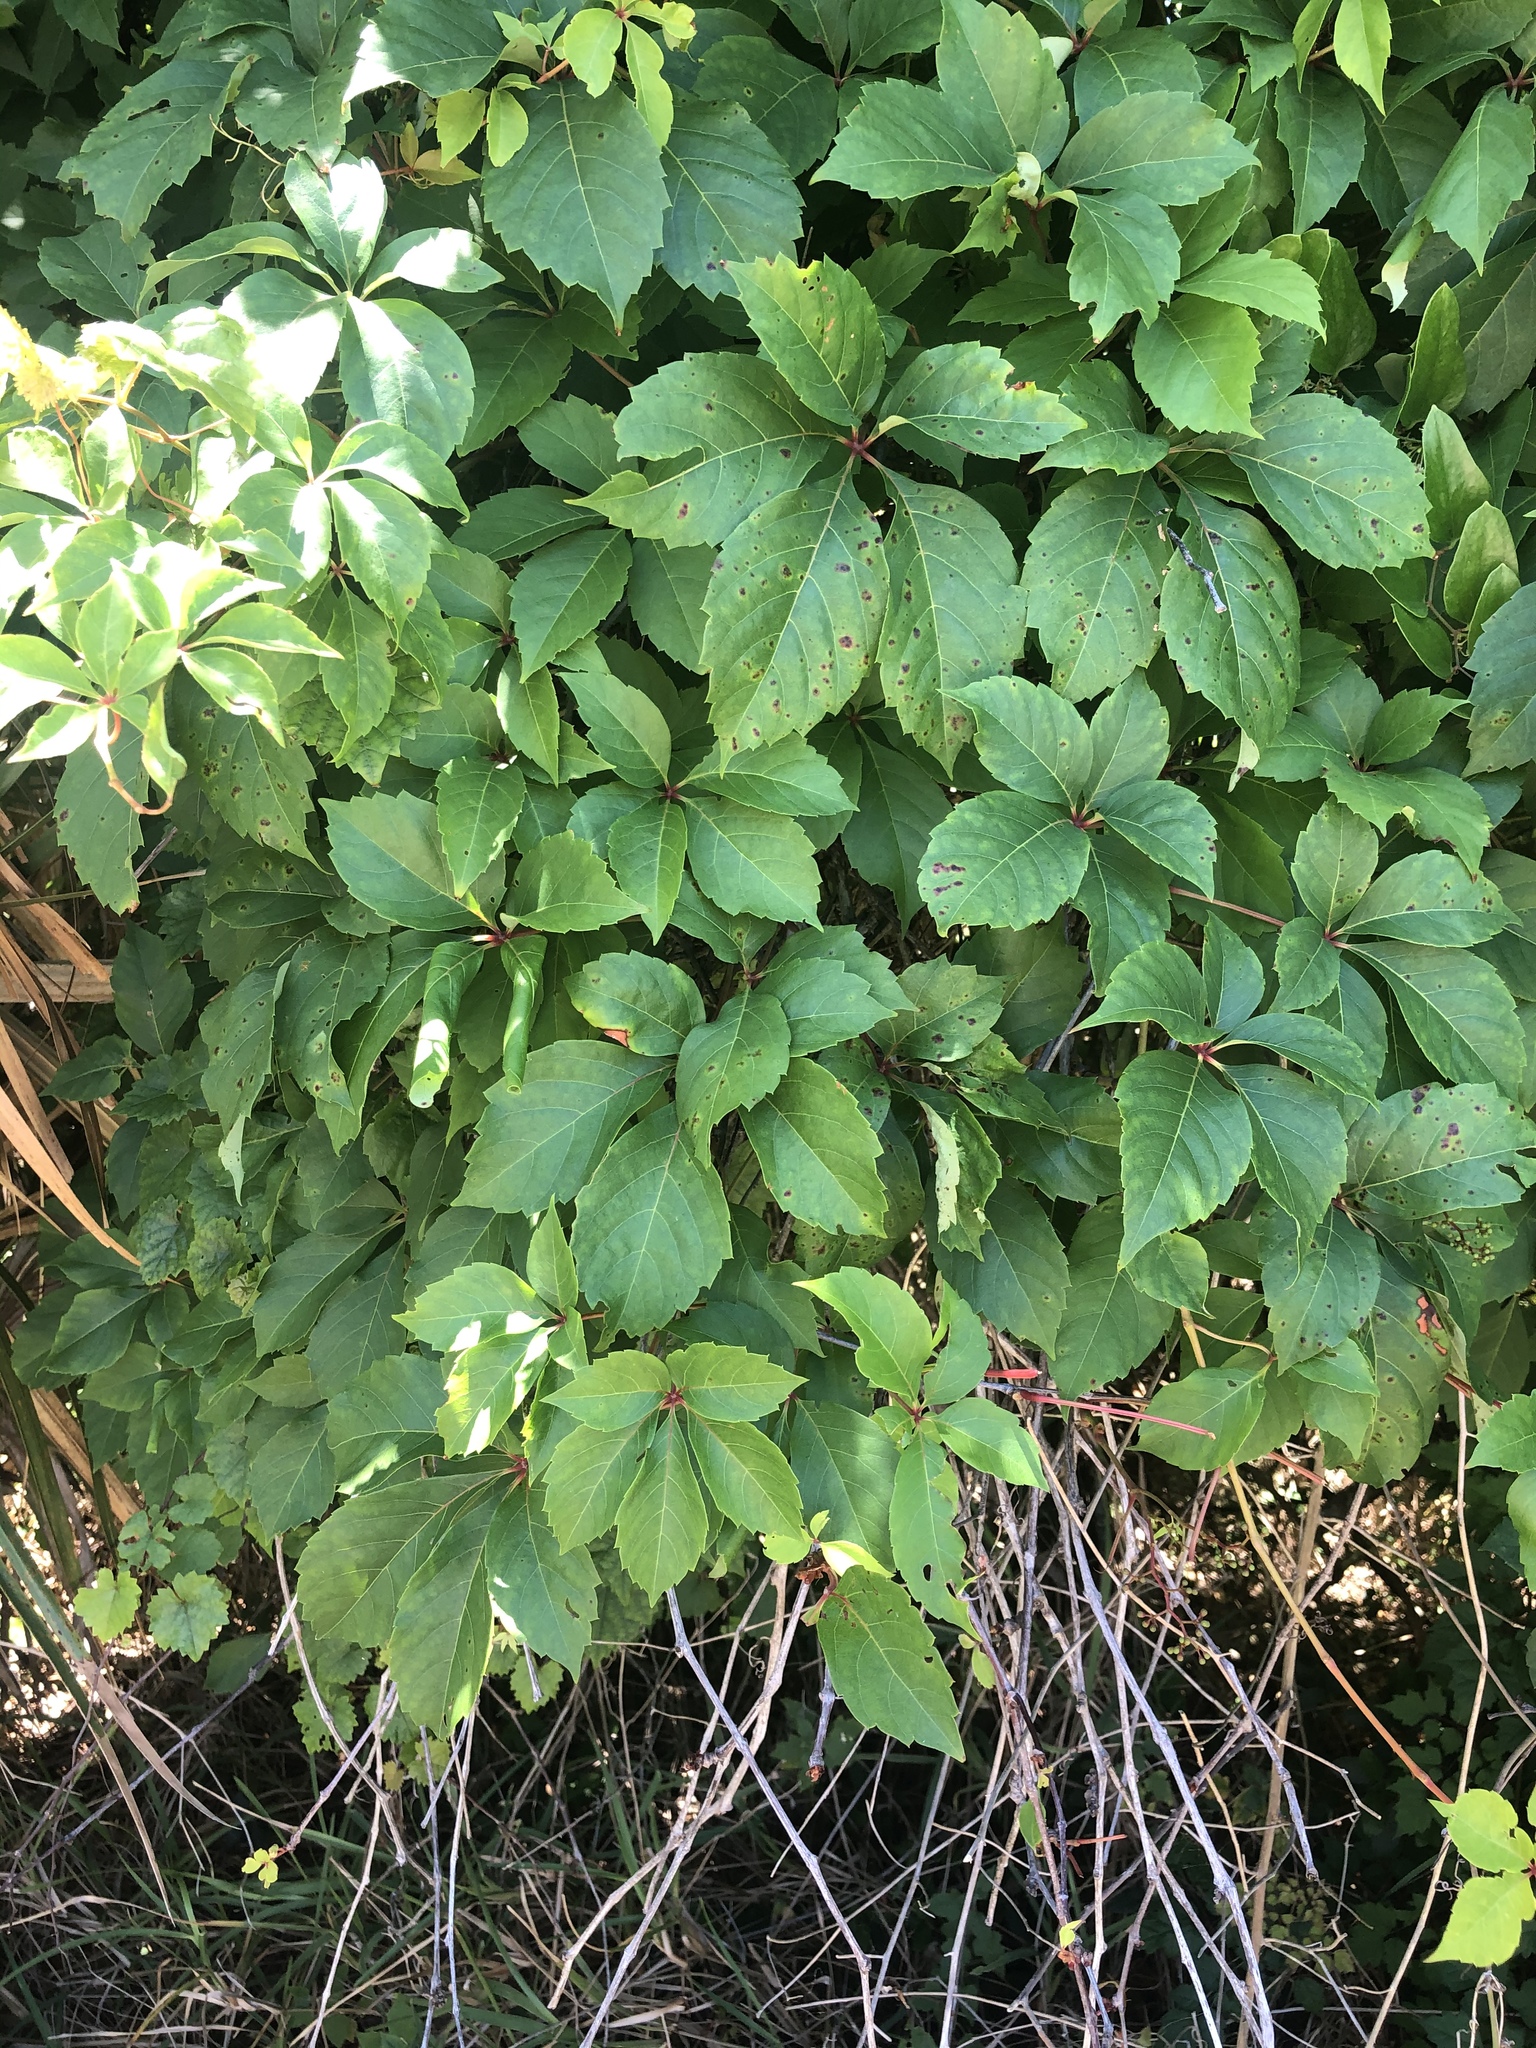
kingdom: Plantae
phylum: Tracheophyta
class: Magnoliopsida
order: Vitales
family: Vitaceae
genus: Parthenocissus
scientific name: Parthenocissus quinquefolia
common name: Virginia-creeper
